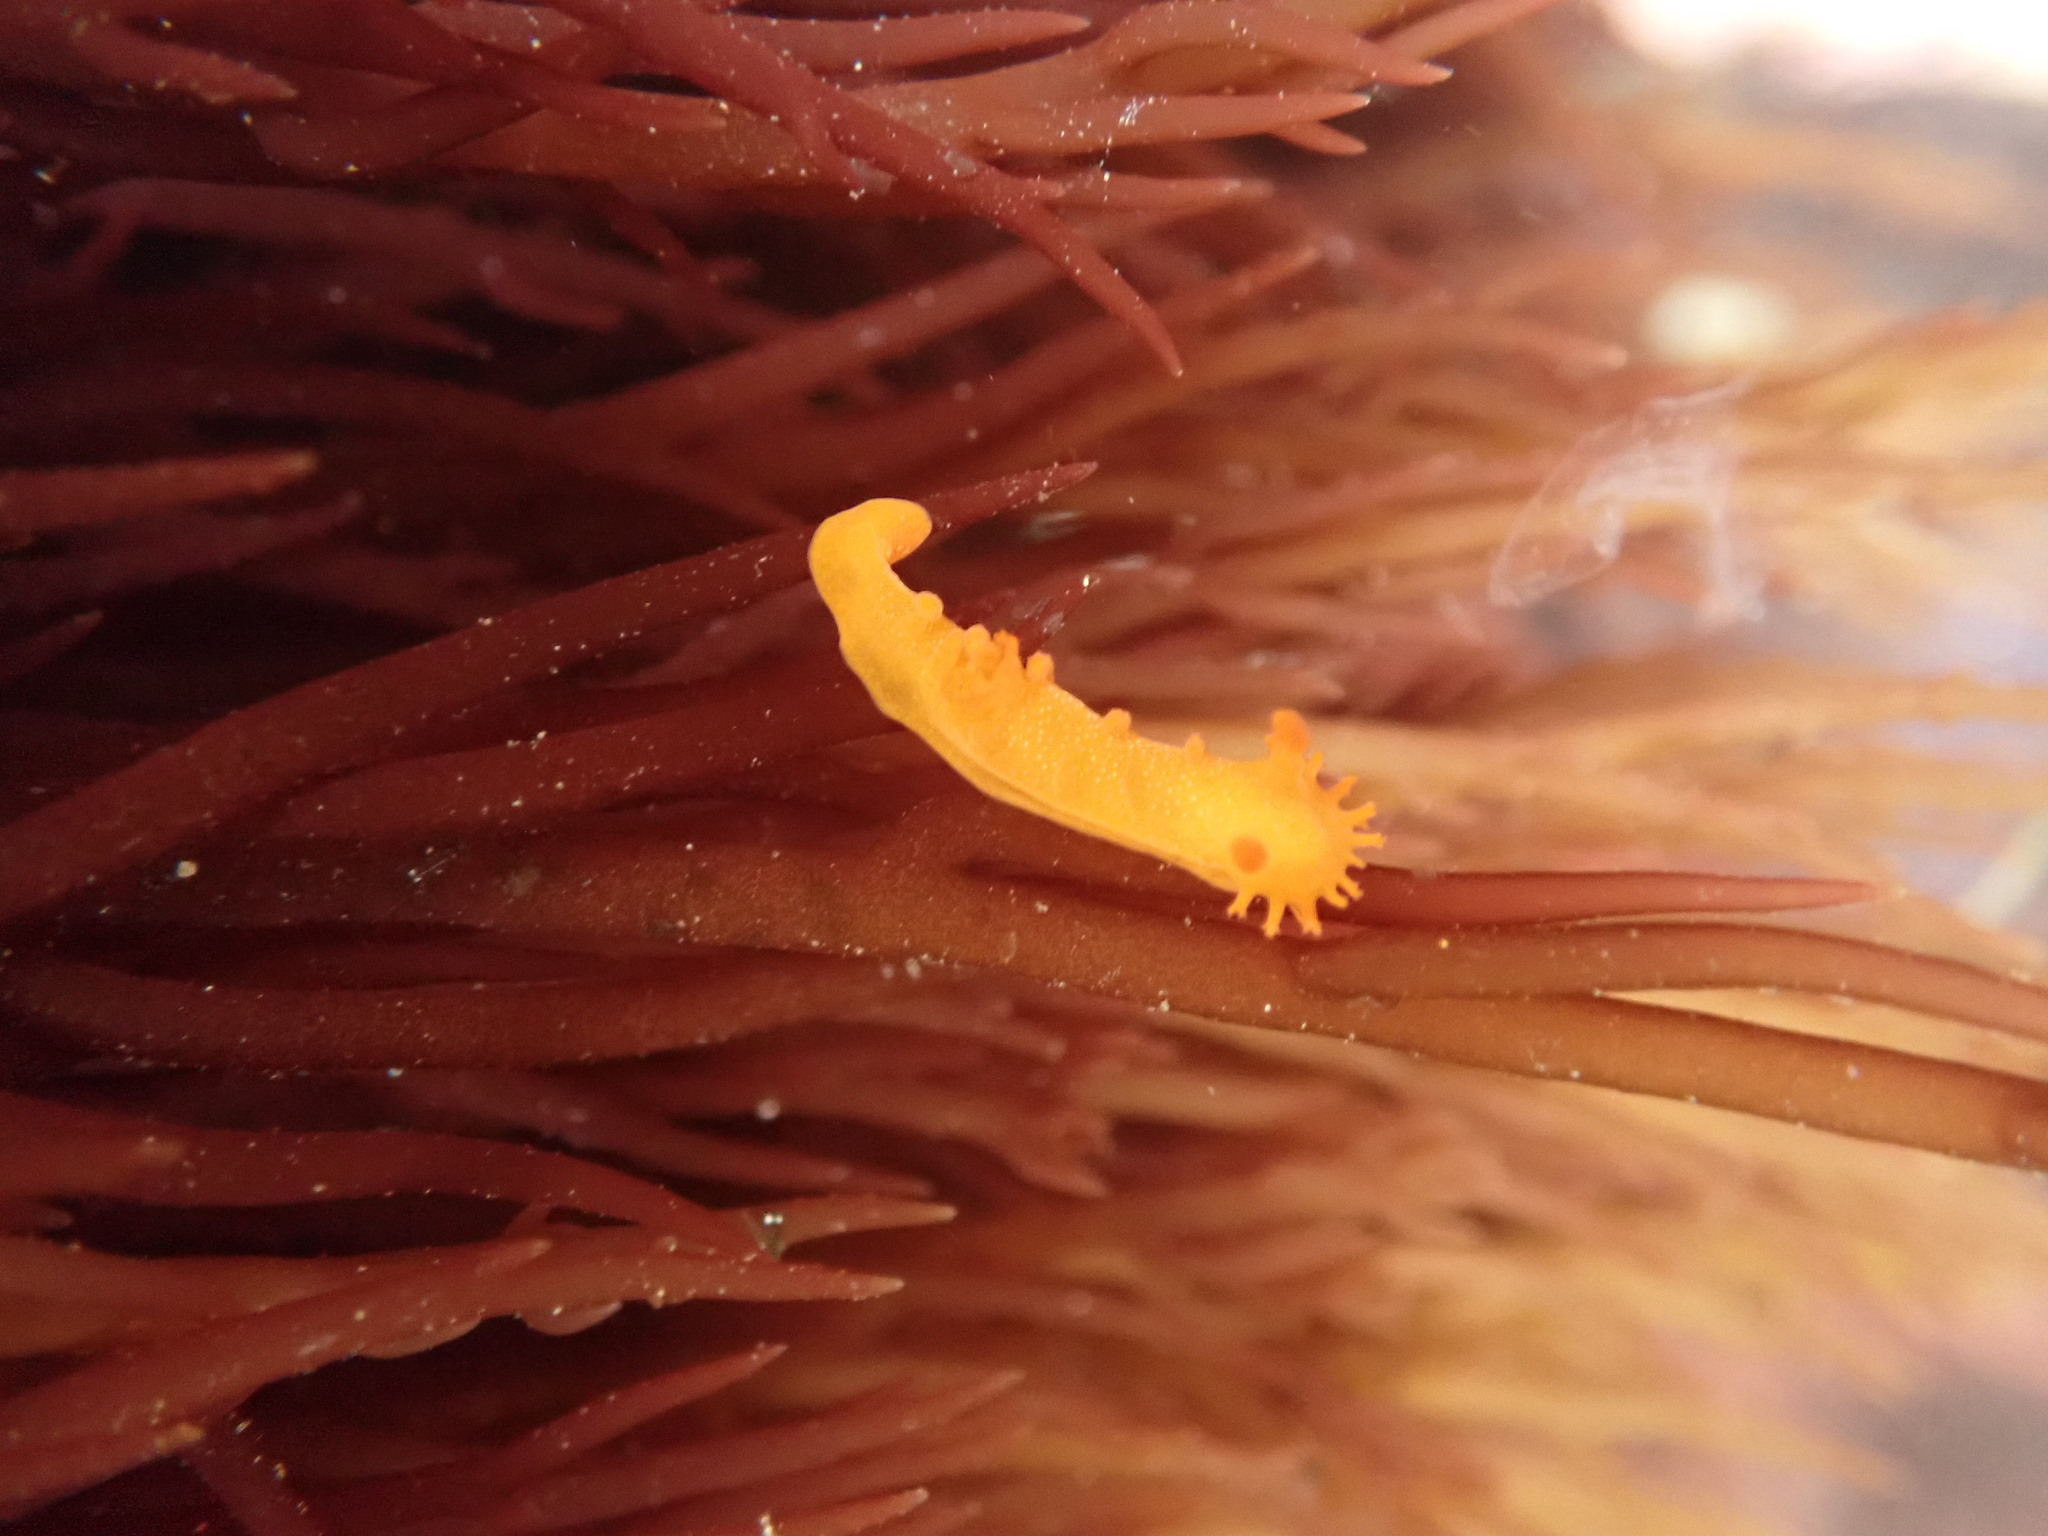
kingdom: Animalia
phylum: Mollusca
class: Gastropoda
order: Nudibranchia
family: Polyceridae
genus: Triopha
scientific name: Triopha maculata
